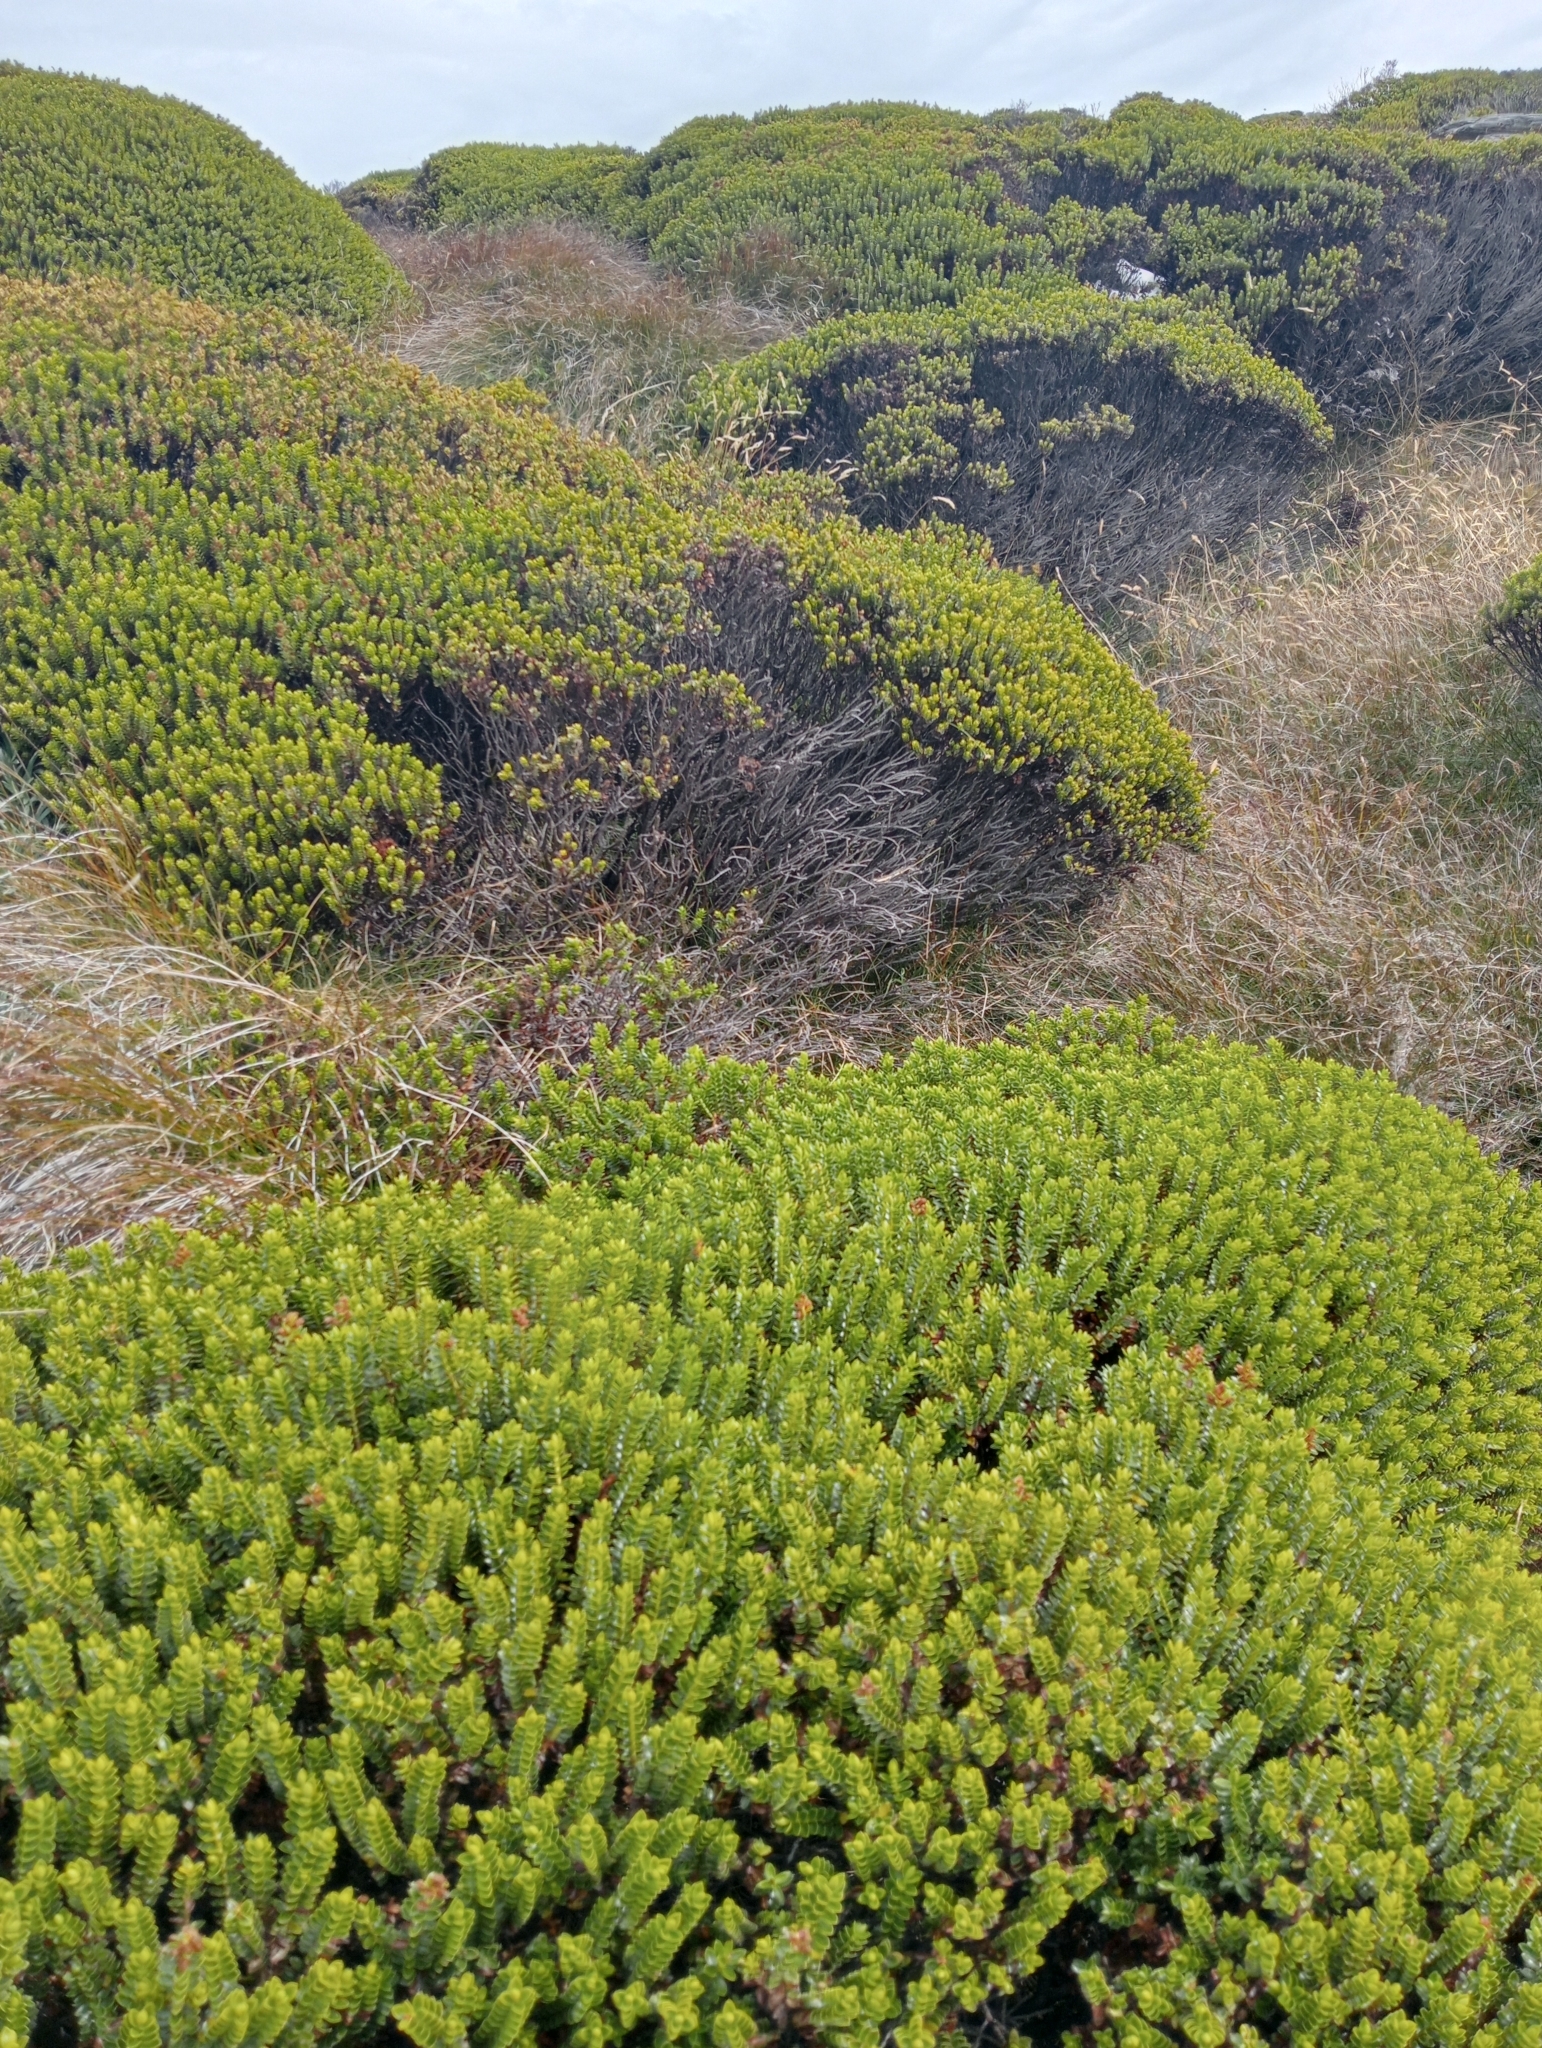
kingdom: Plantae
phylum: Tracheophyta
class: Magnoliopsida
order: Lamiales
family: Plantaginaceae
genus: Veronica
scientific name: Veronica odora
